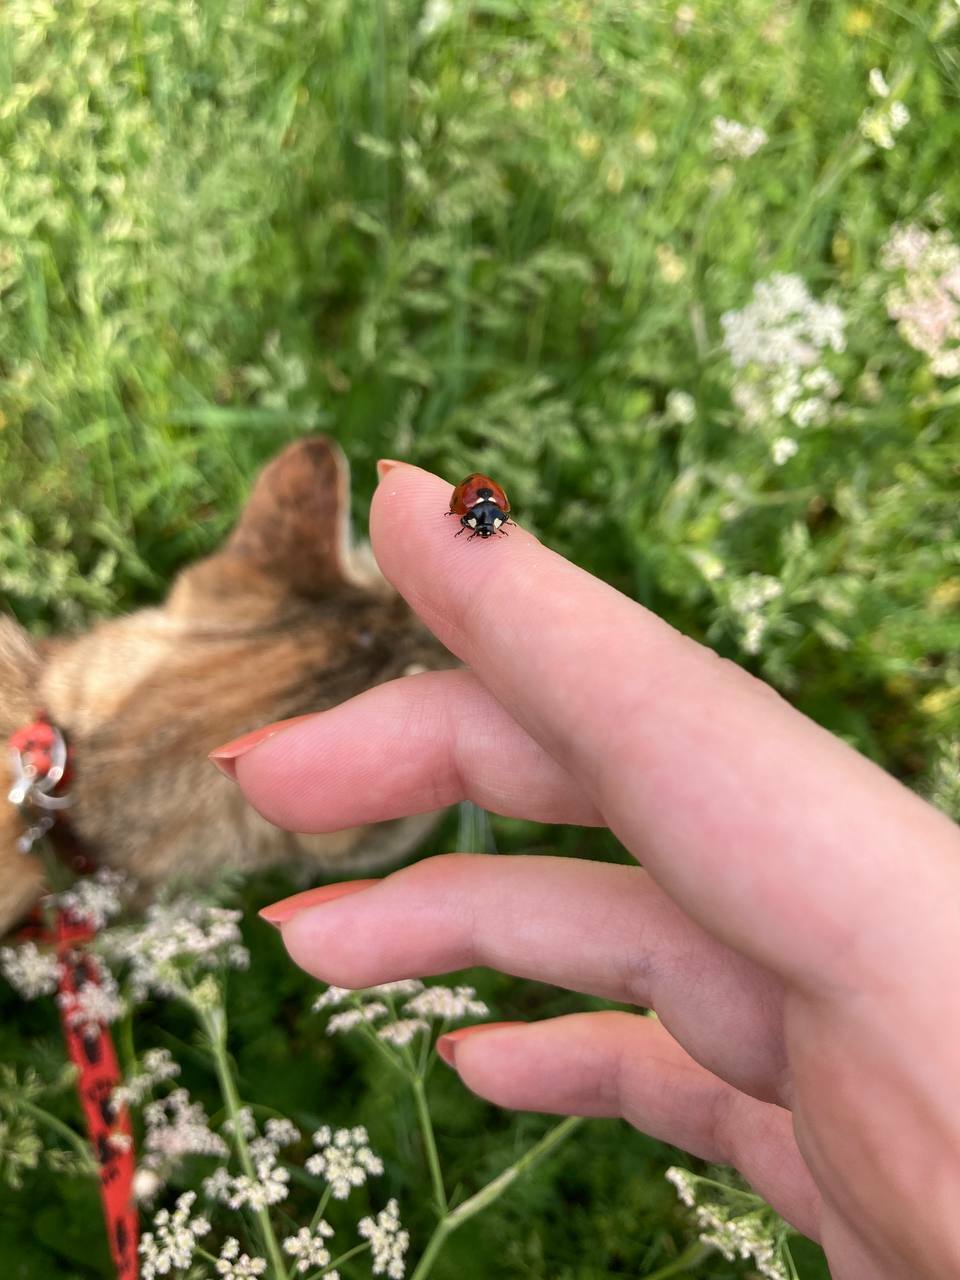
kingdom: Animalia
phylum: Arthropoda
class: Insecta
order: Coleoptera
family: Coccinellidae
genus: Coccinella
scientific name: Coccinella septempunctata
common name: Sevenspotted lady beetle
